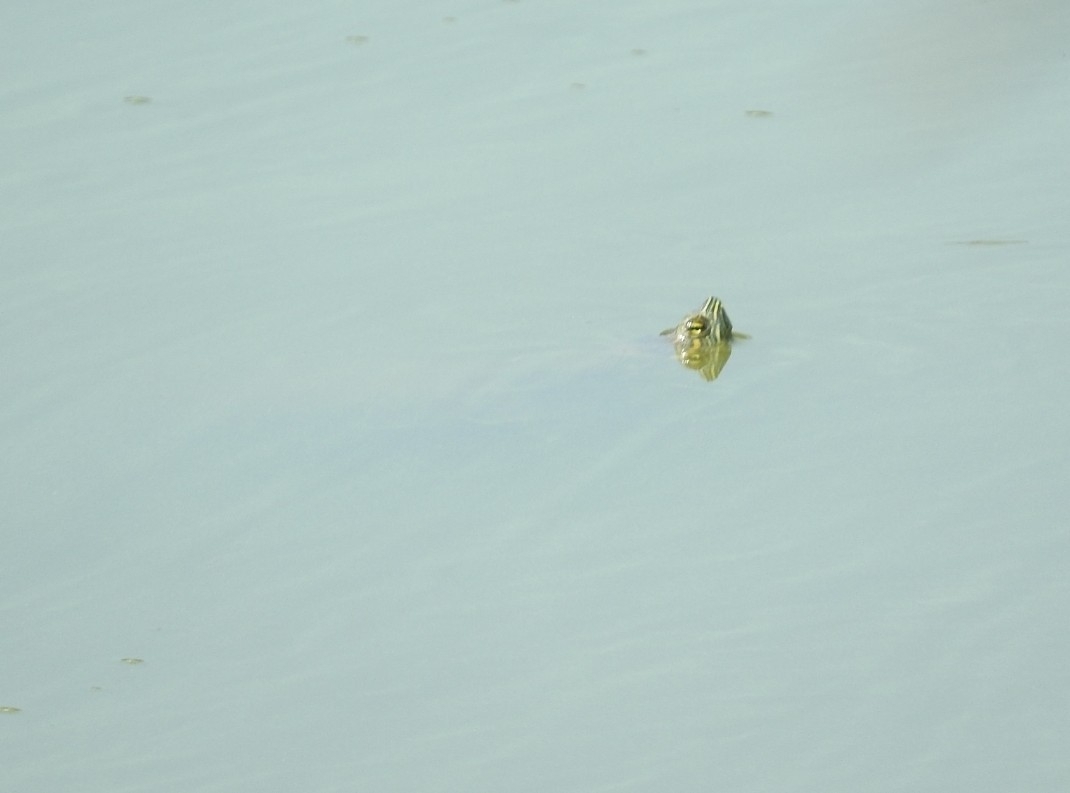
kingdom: Animalia
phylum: Chordata
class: Testudines
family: Emydidae
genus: Trachemys
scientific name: Trachemys venusta
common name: Mesoamerican slider
